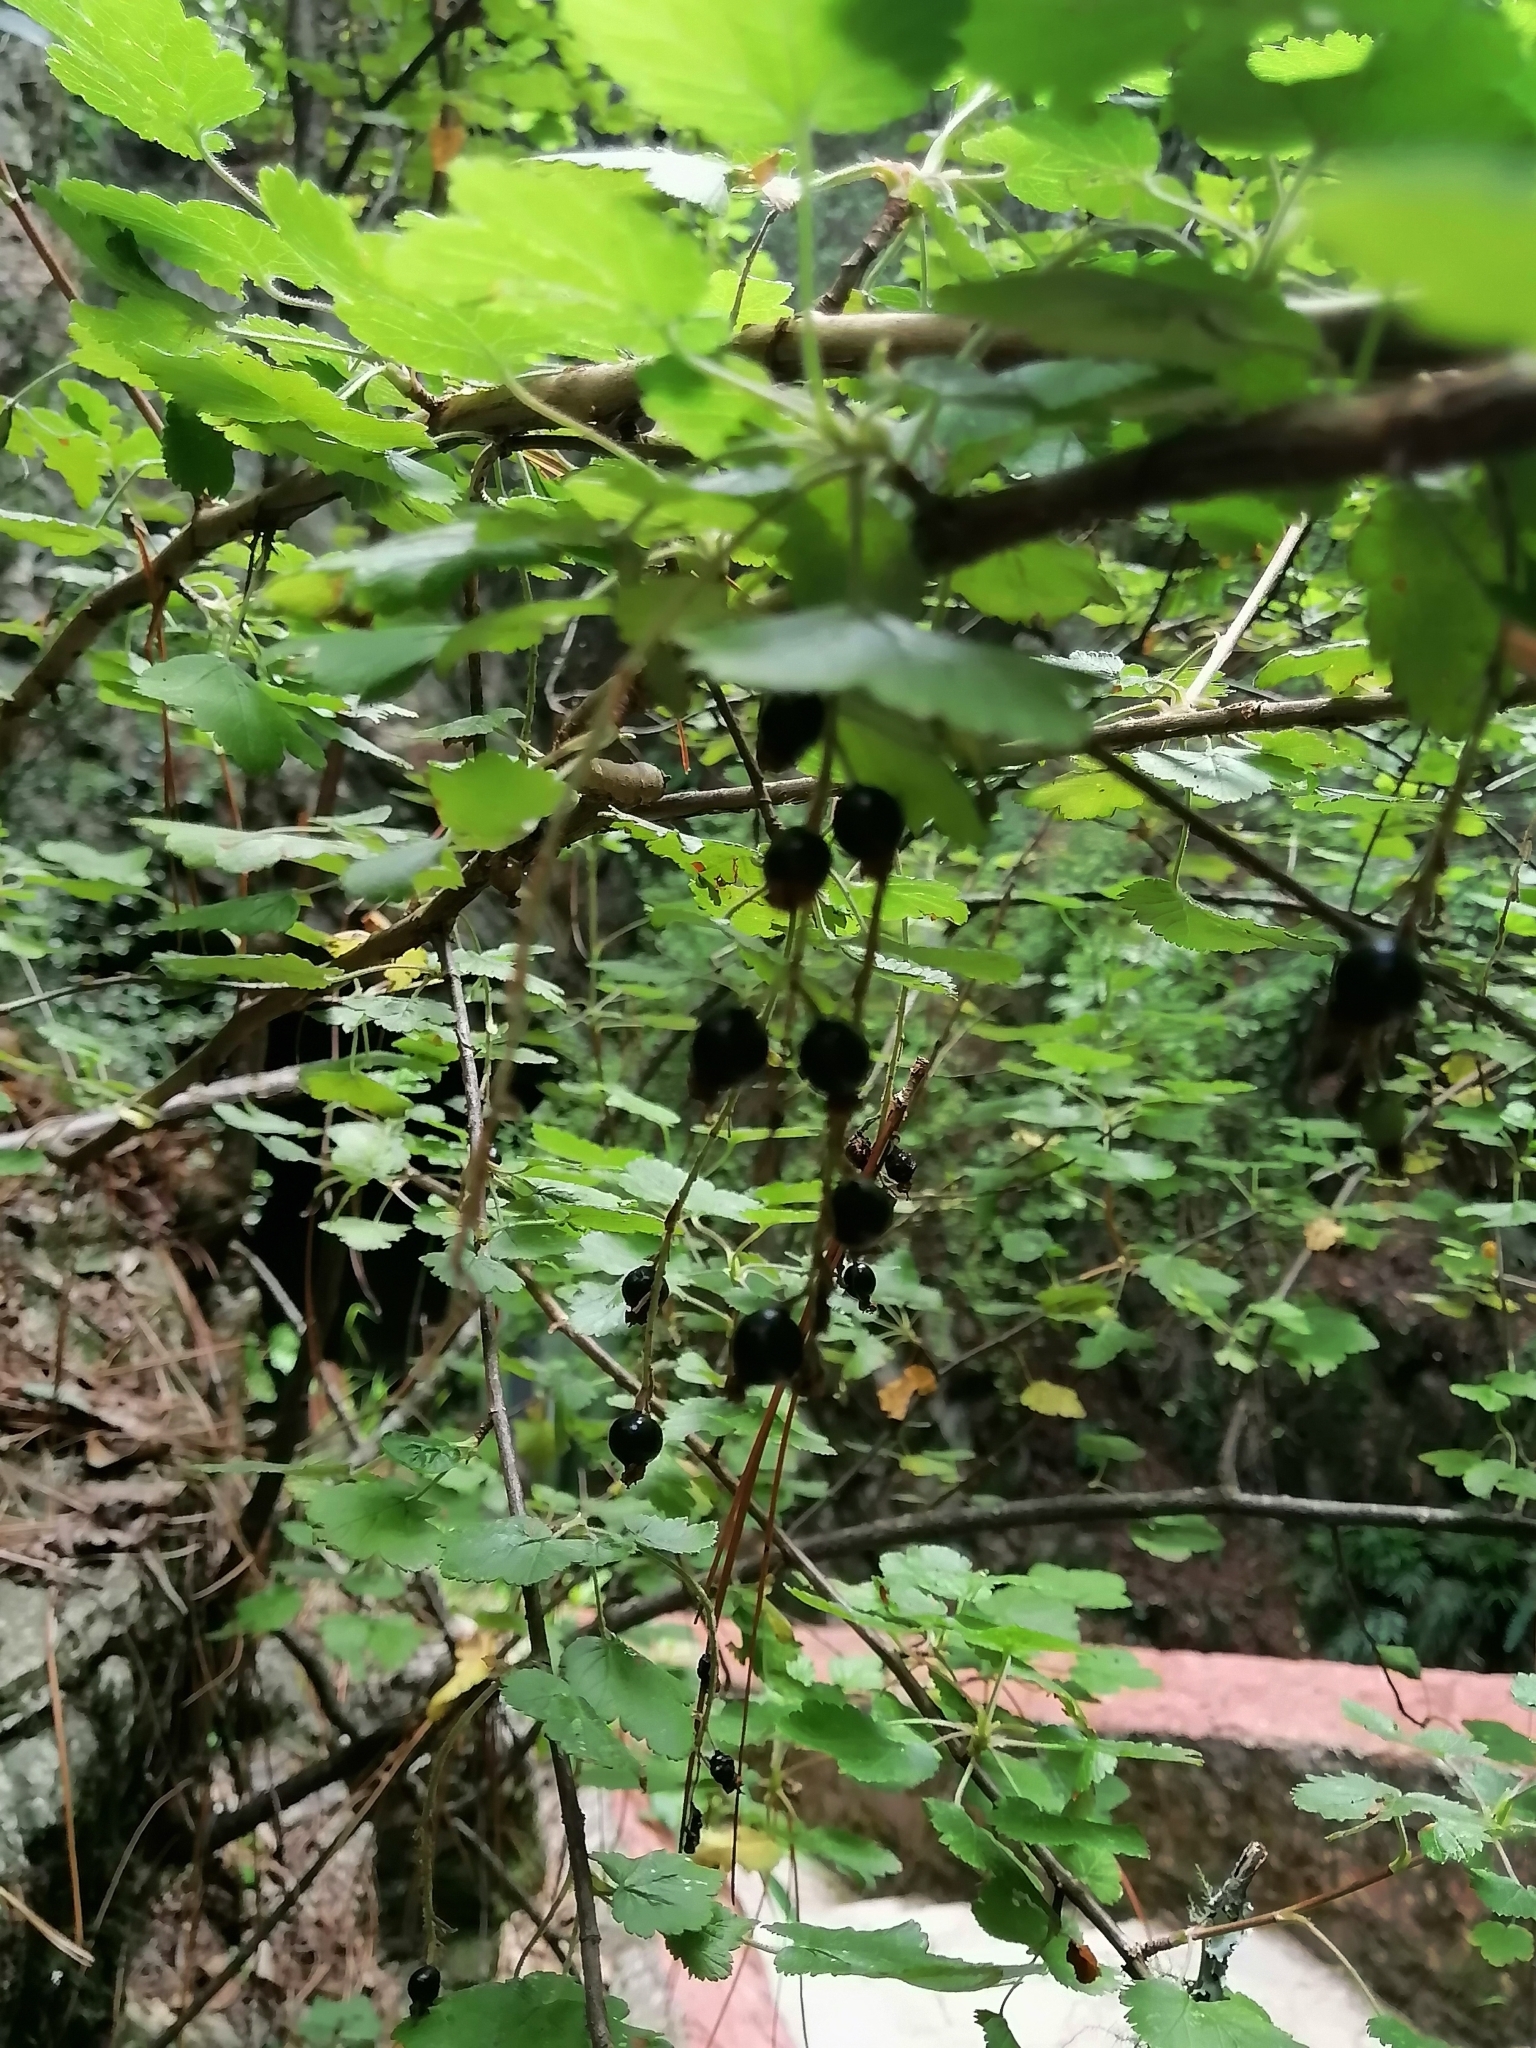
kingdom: Plantae
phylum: Tracheophyta
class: Magnoliopsida
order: Saxifragales
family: Grossulariaceae
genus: Ribes
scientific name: Ribes ciliatum
